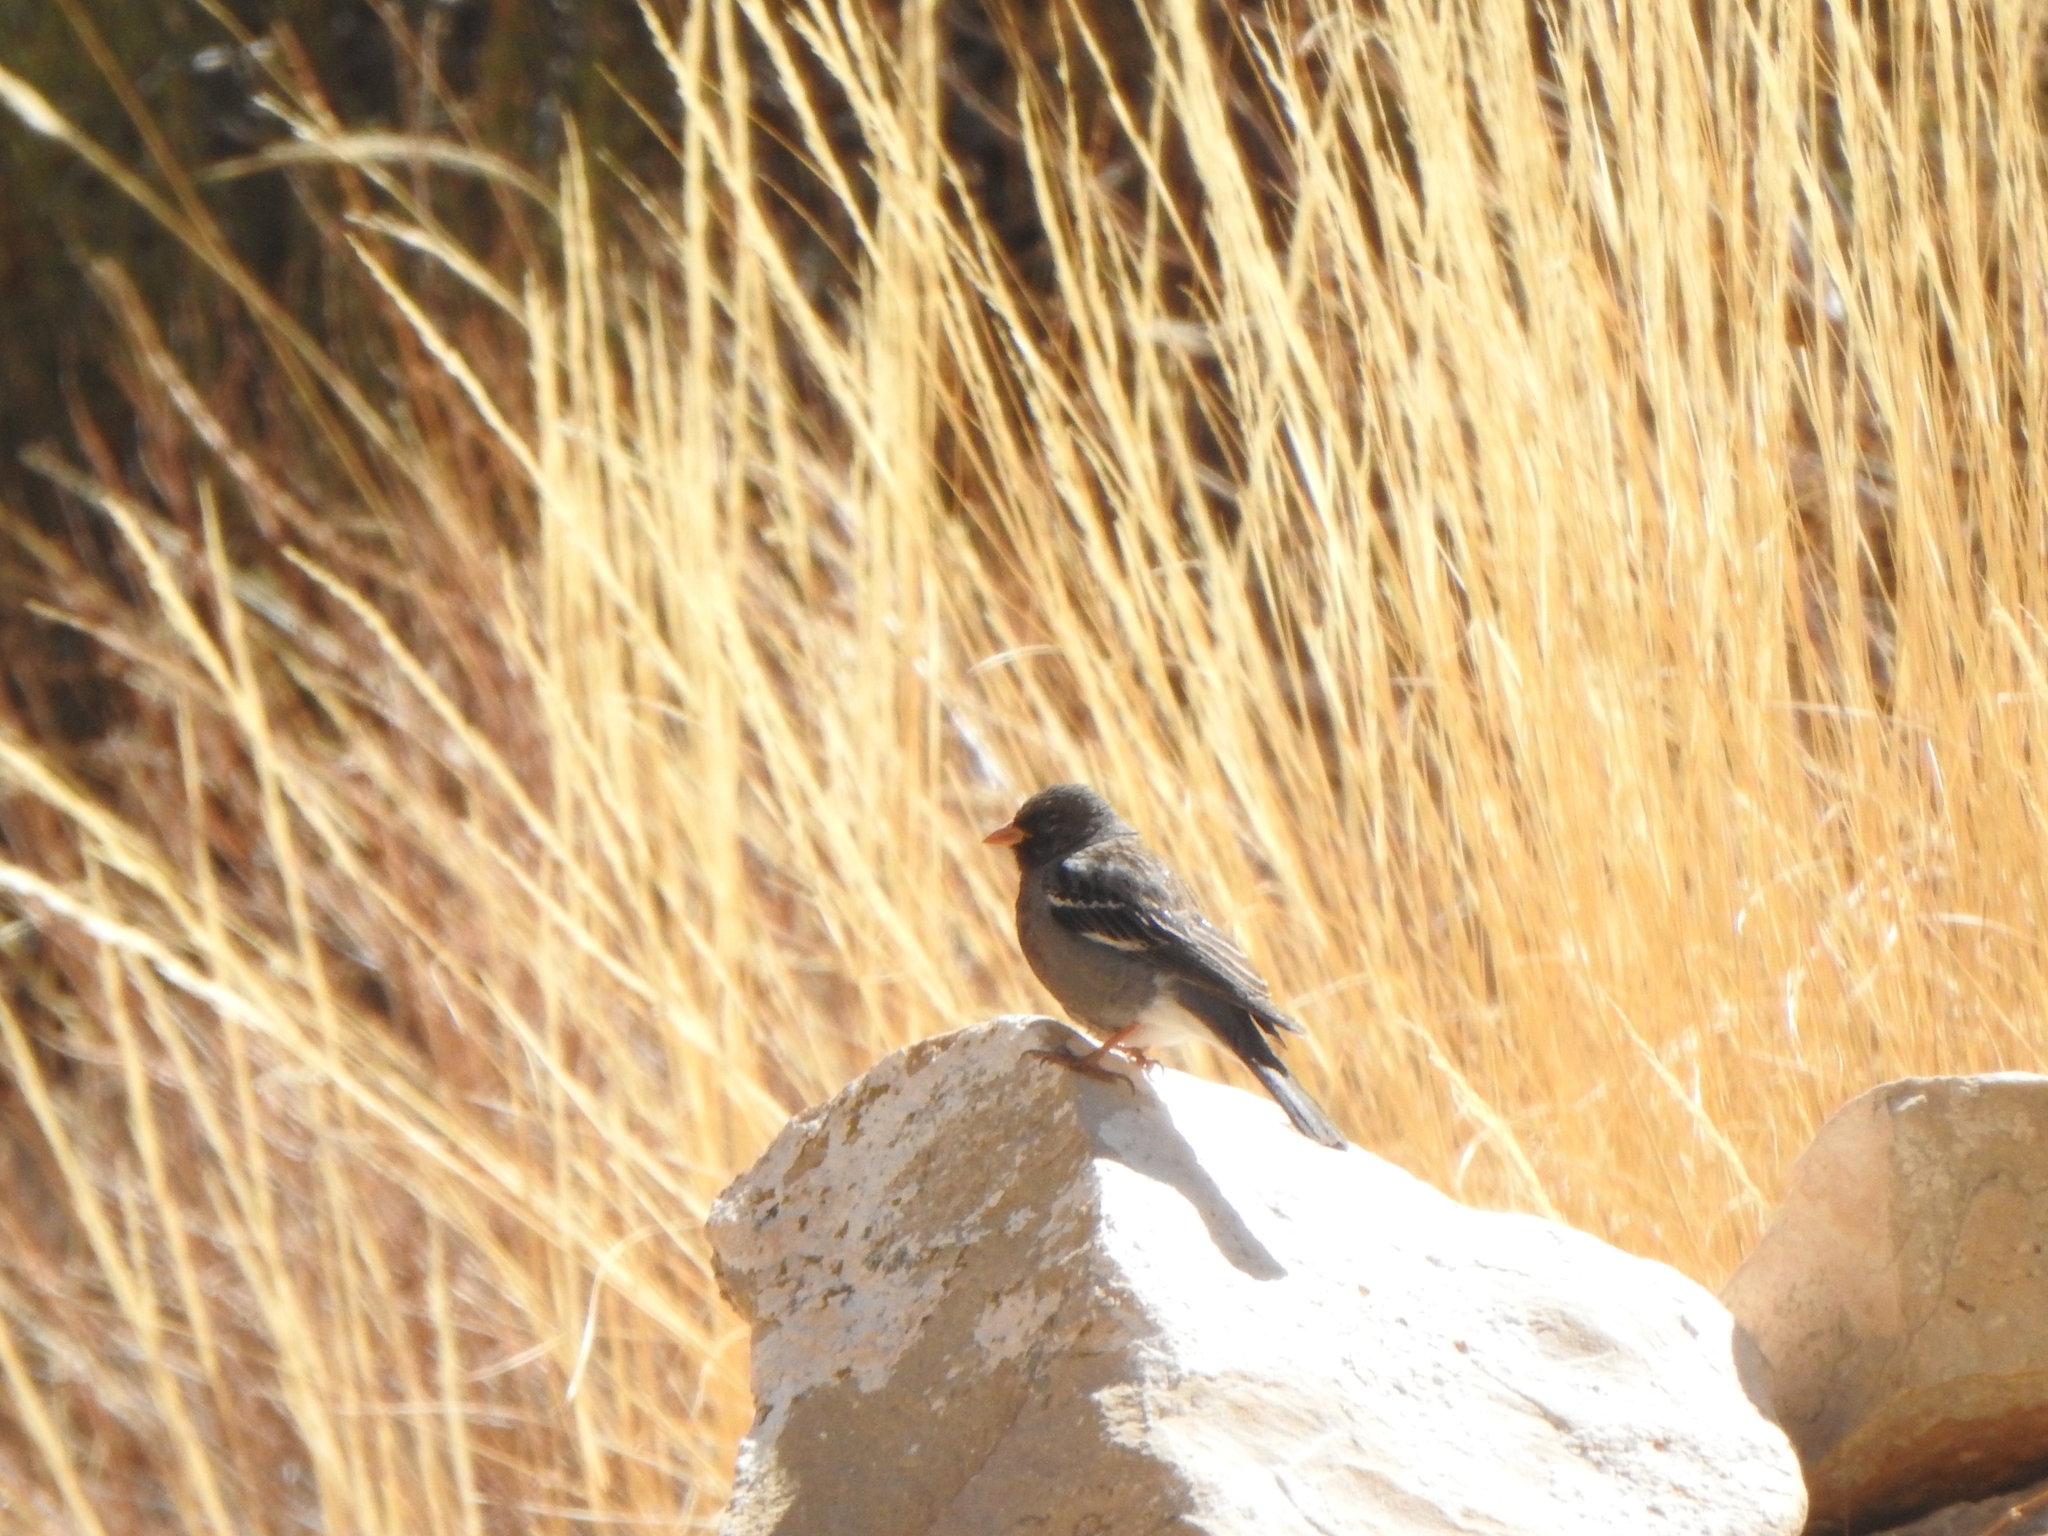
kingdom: Animalia
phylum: Chordata
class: Aves
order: Passeriformes
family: Thraupidae
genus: Rhopospina
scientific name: Rhopospina fruticeti
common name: Mourning sierra finch
